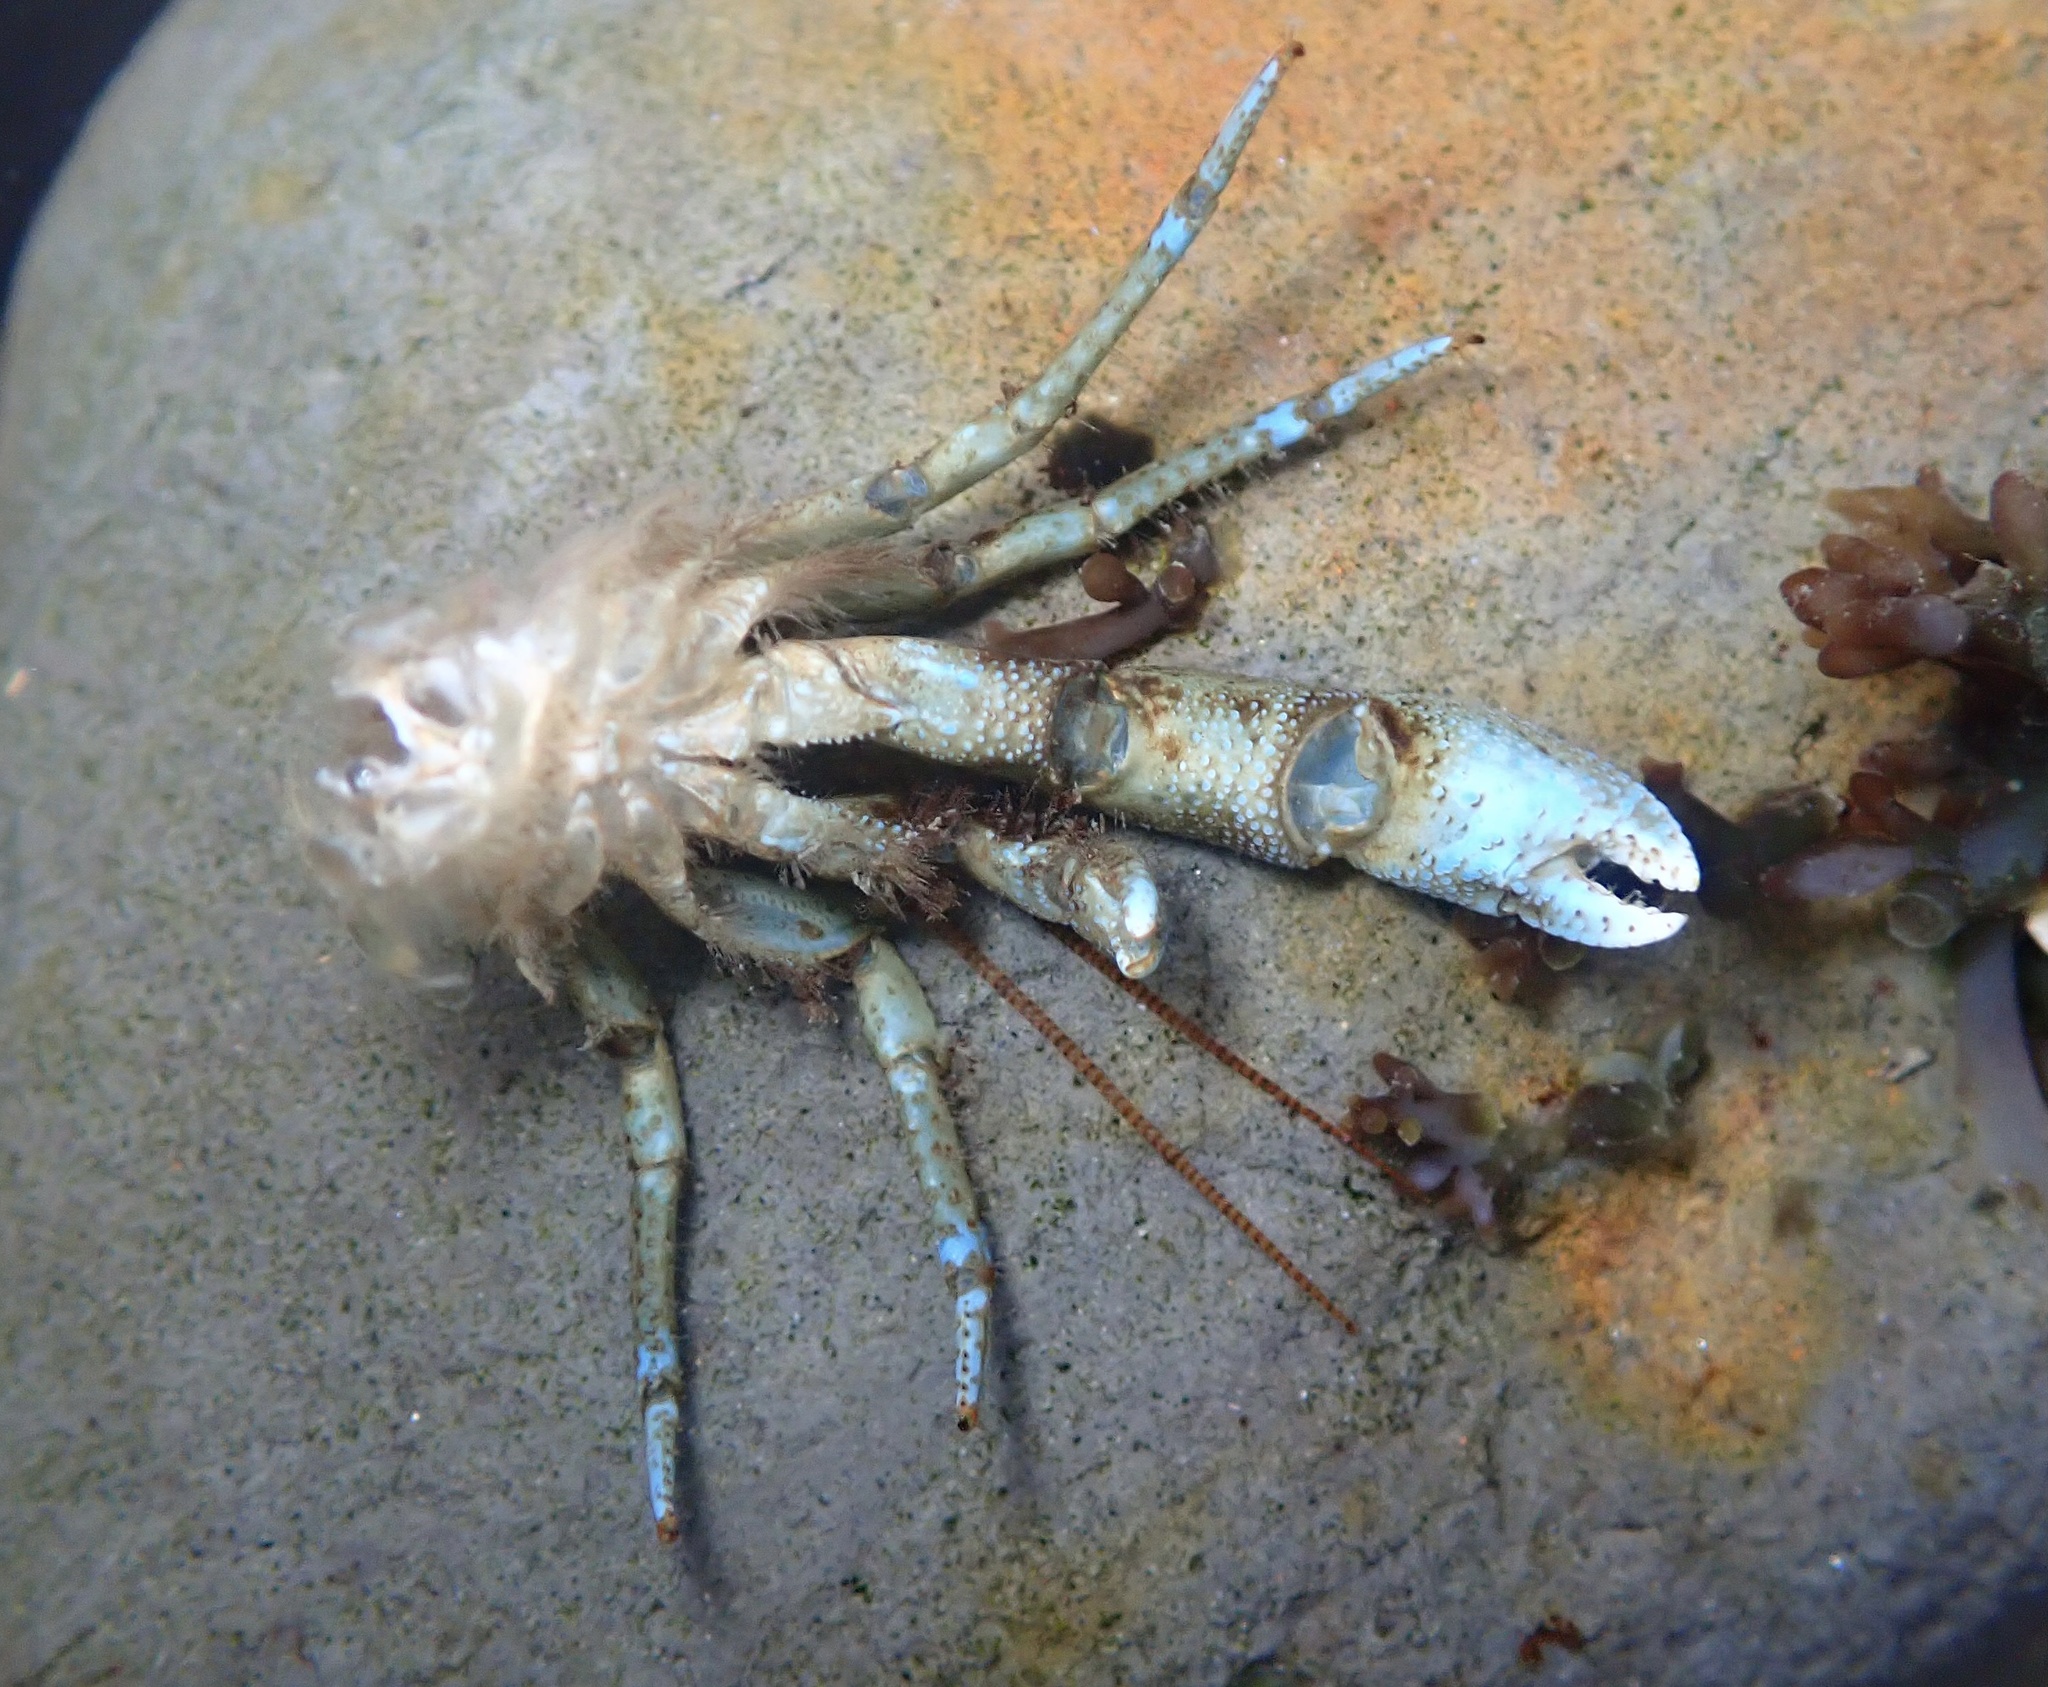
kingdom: Animalia
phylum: Arthropoda
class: Malacostraca
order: Decapoda
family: Paguridae
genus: Pagurus
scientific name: Pagurus samuelis
